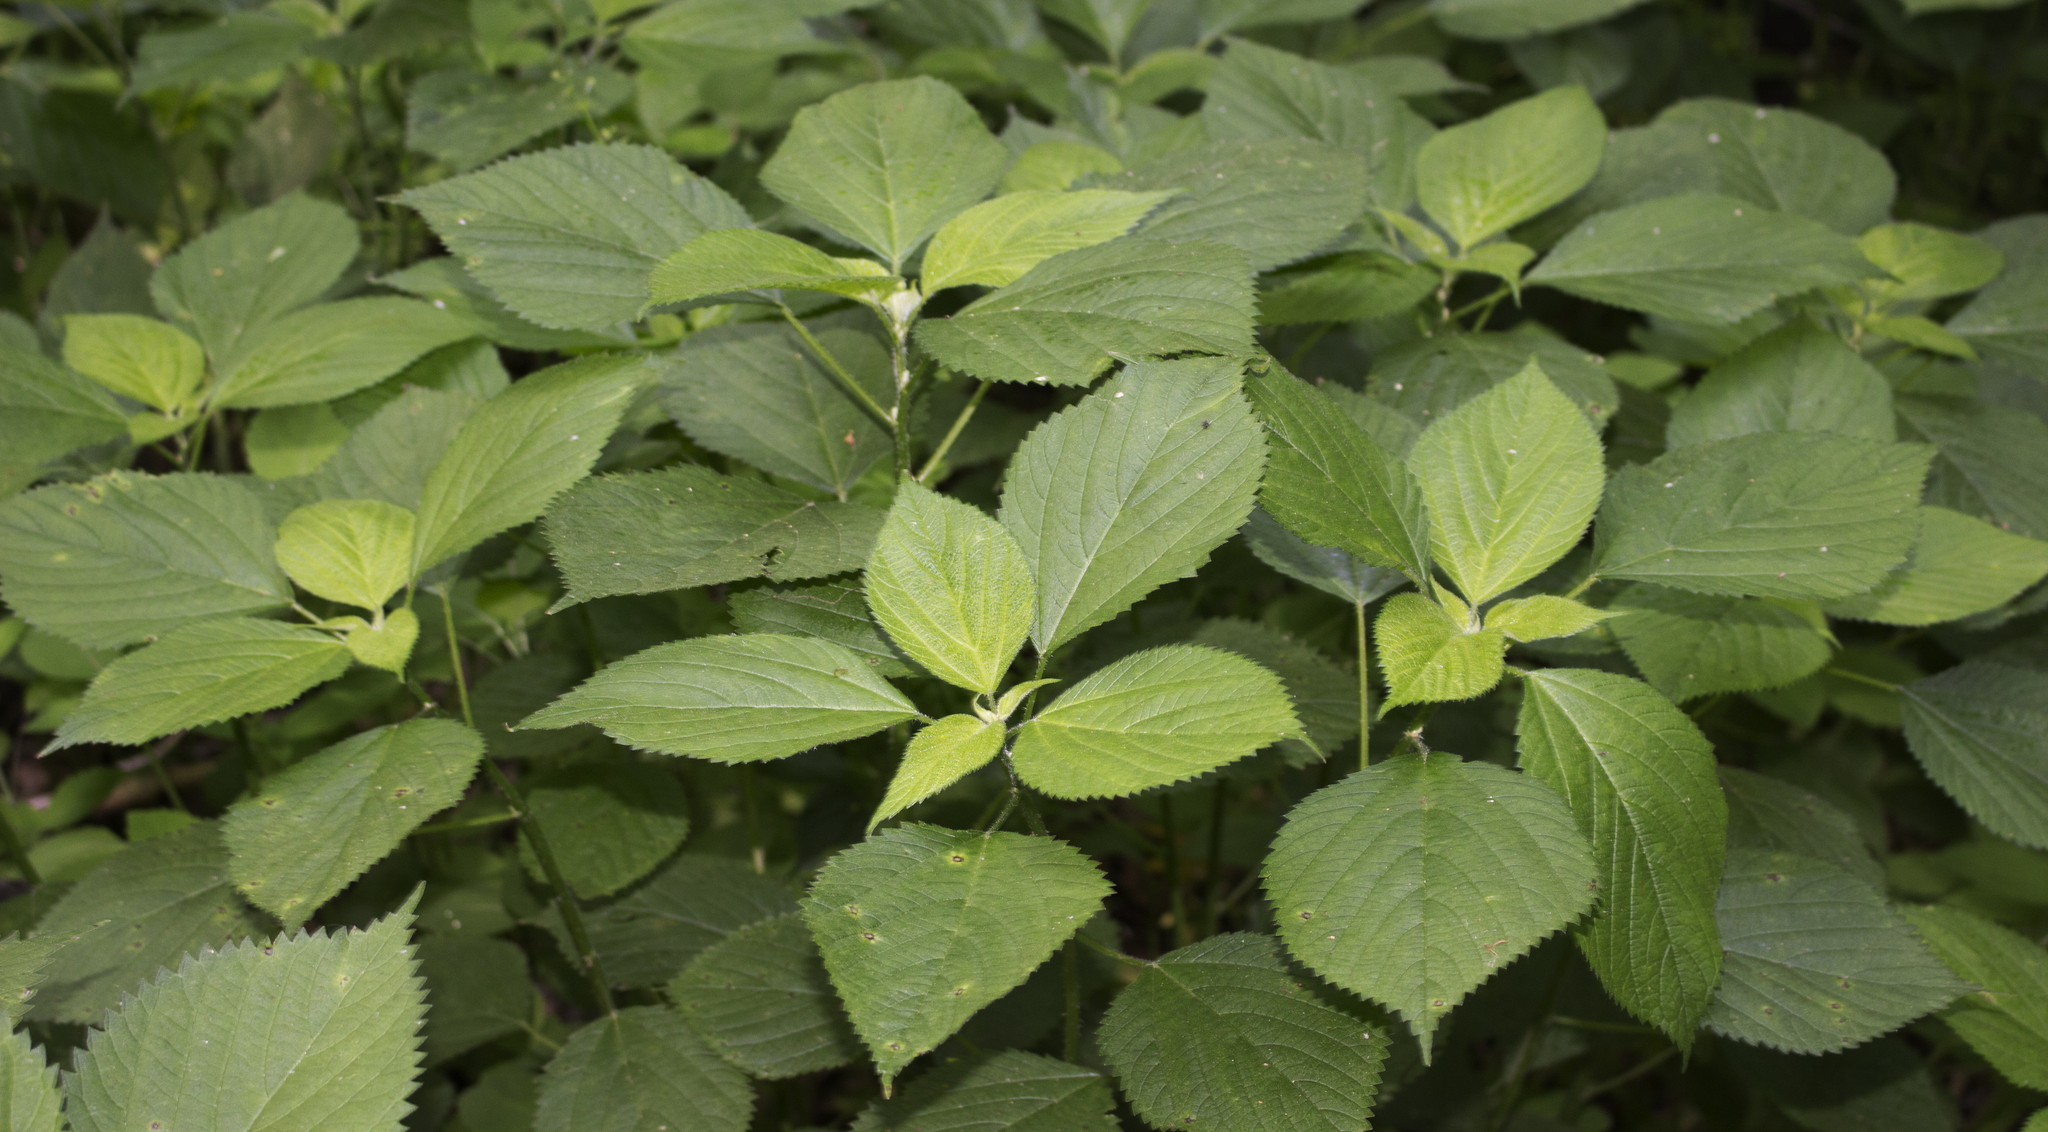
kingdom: Plantae
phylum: Tracheophyta
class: Magnoliopsida
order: Rosales
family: Urticaceae
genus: Laportea
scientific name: Laportea canadensis
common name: Canada nettle
